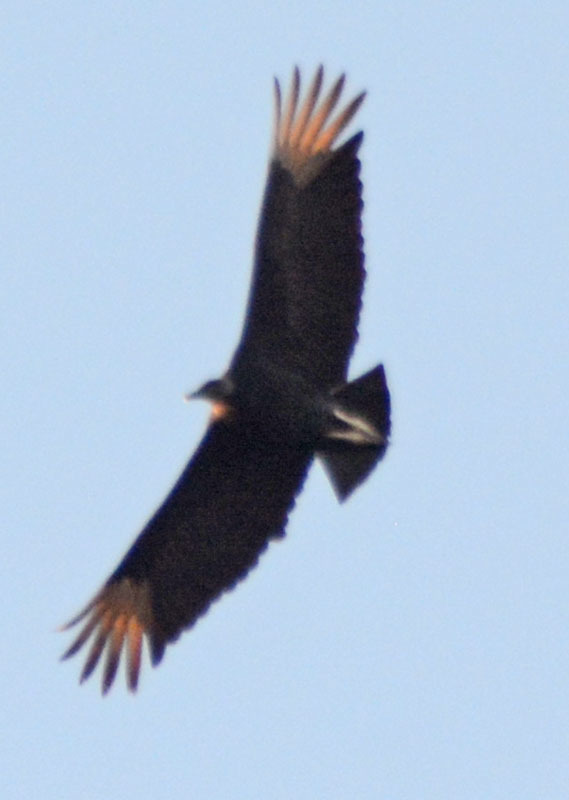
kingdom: Animalia
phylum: Chordata
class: Aves
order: Accipitriformes
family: Cathartidae
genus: Coragyps
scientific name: Coragyps atratus
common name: Black vulture
